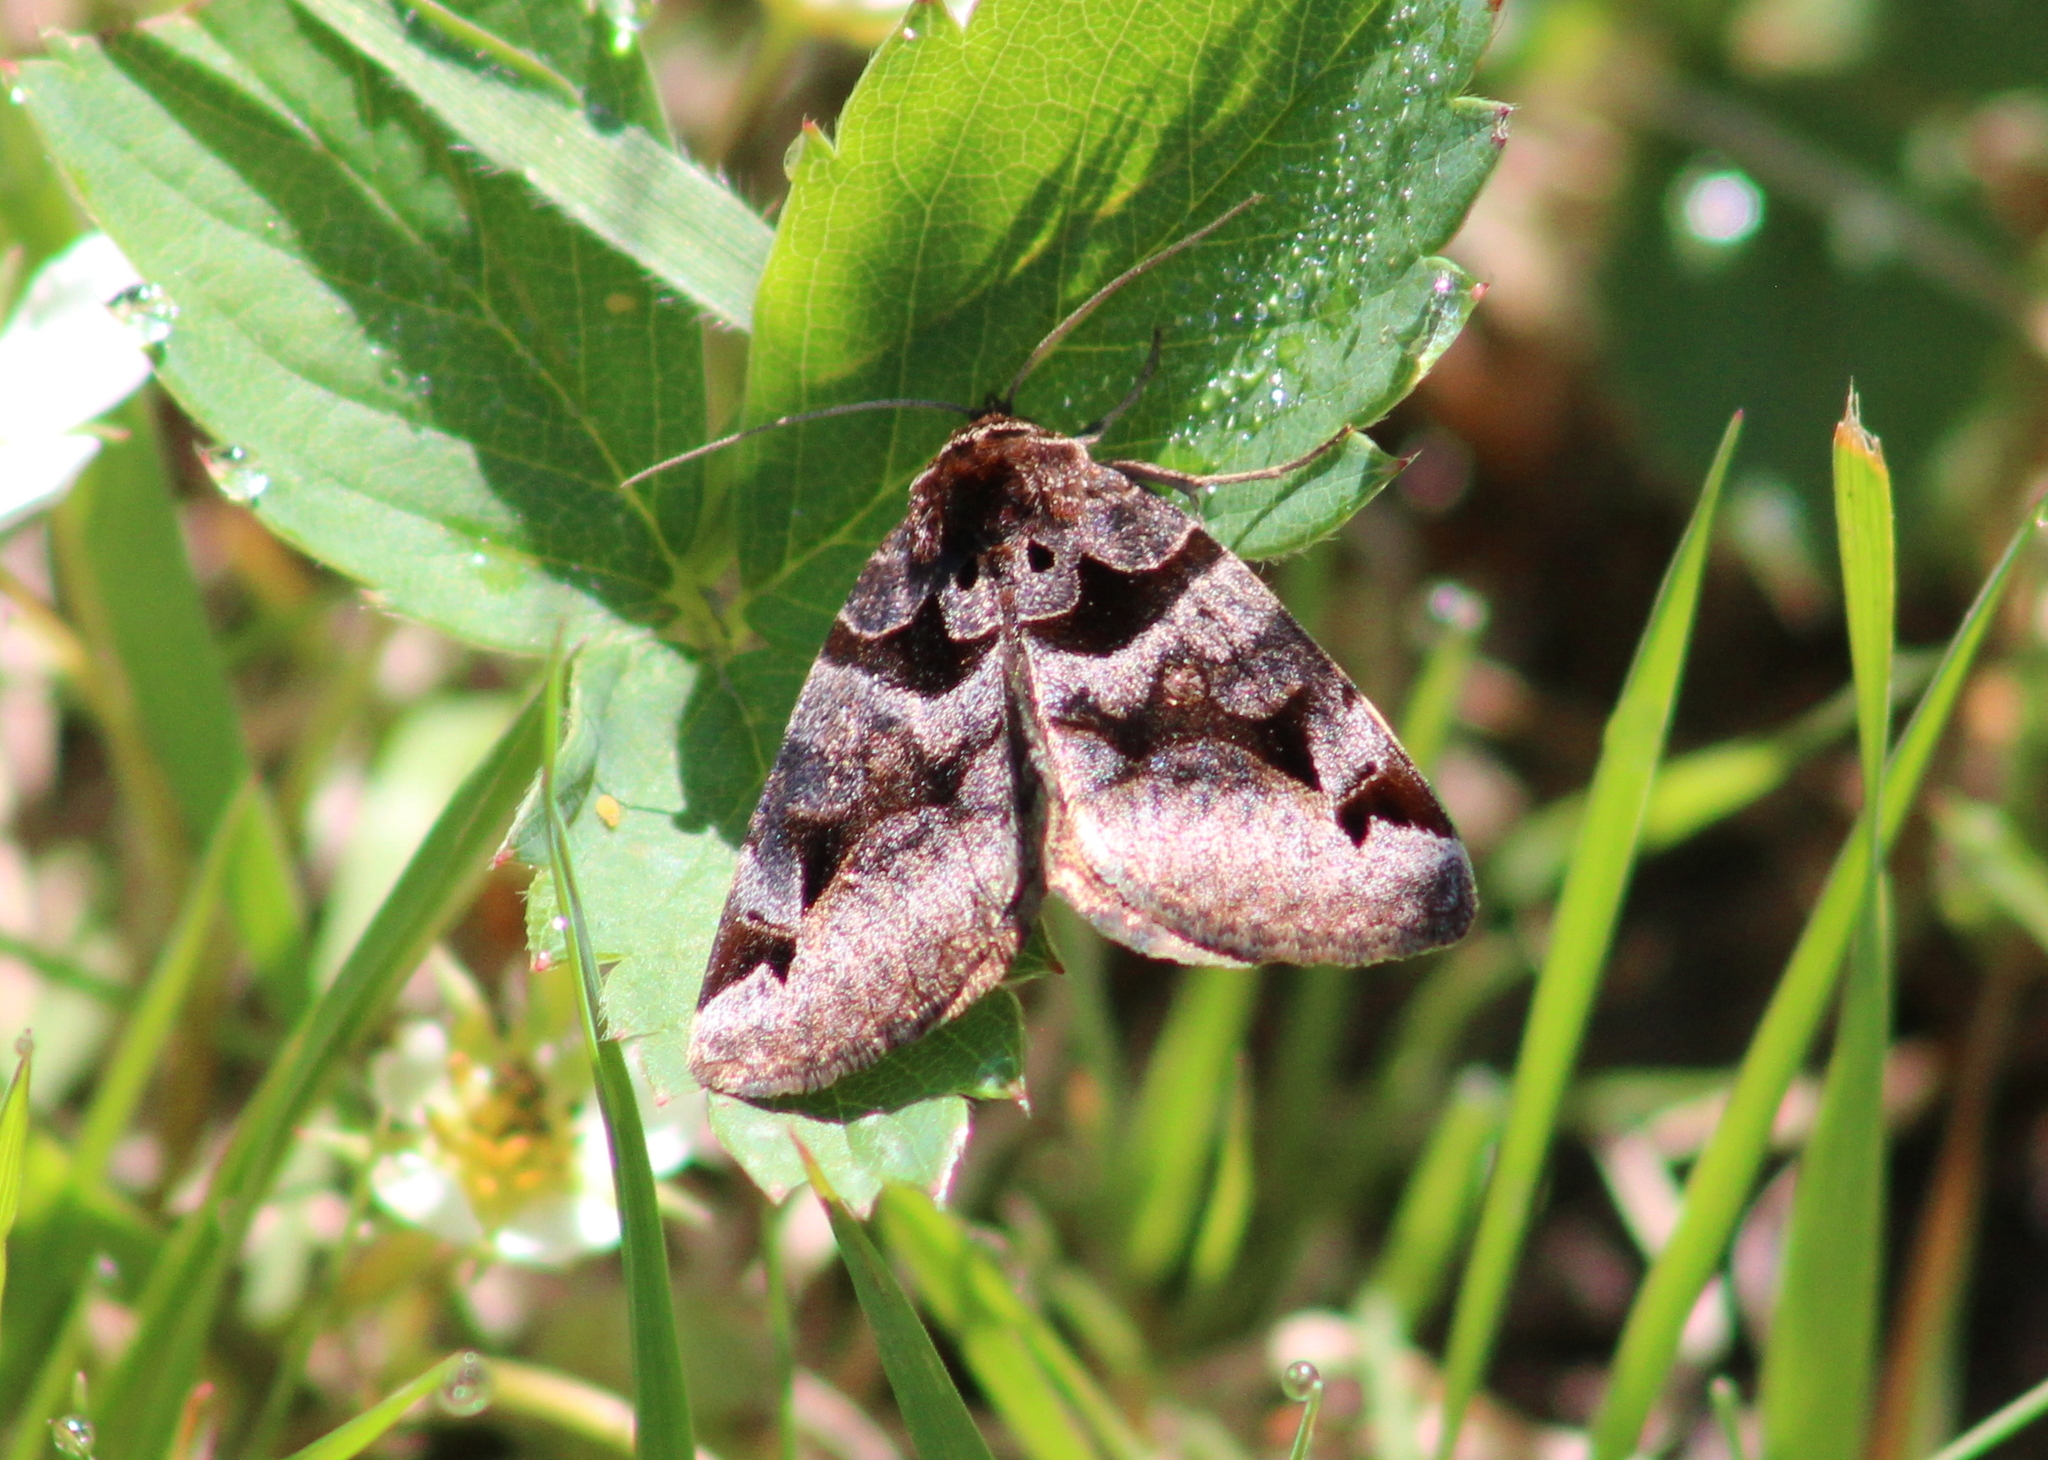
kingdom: Animalia
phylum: Arthropoda
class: Insecta
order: Lepidoptera
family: Erebidae
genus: Euclidia
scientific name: Euclidia cuspidea
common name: Toothed somberwing
